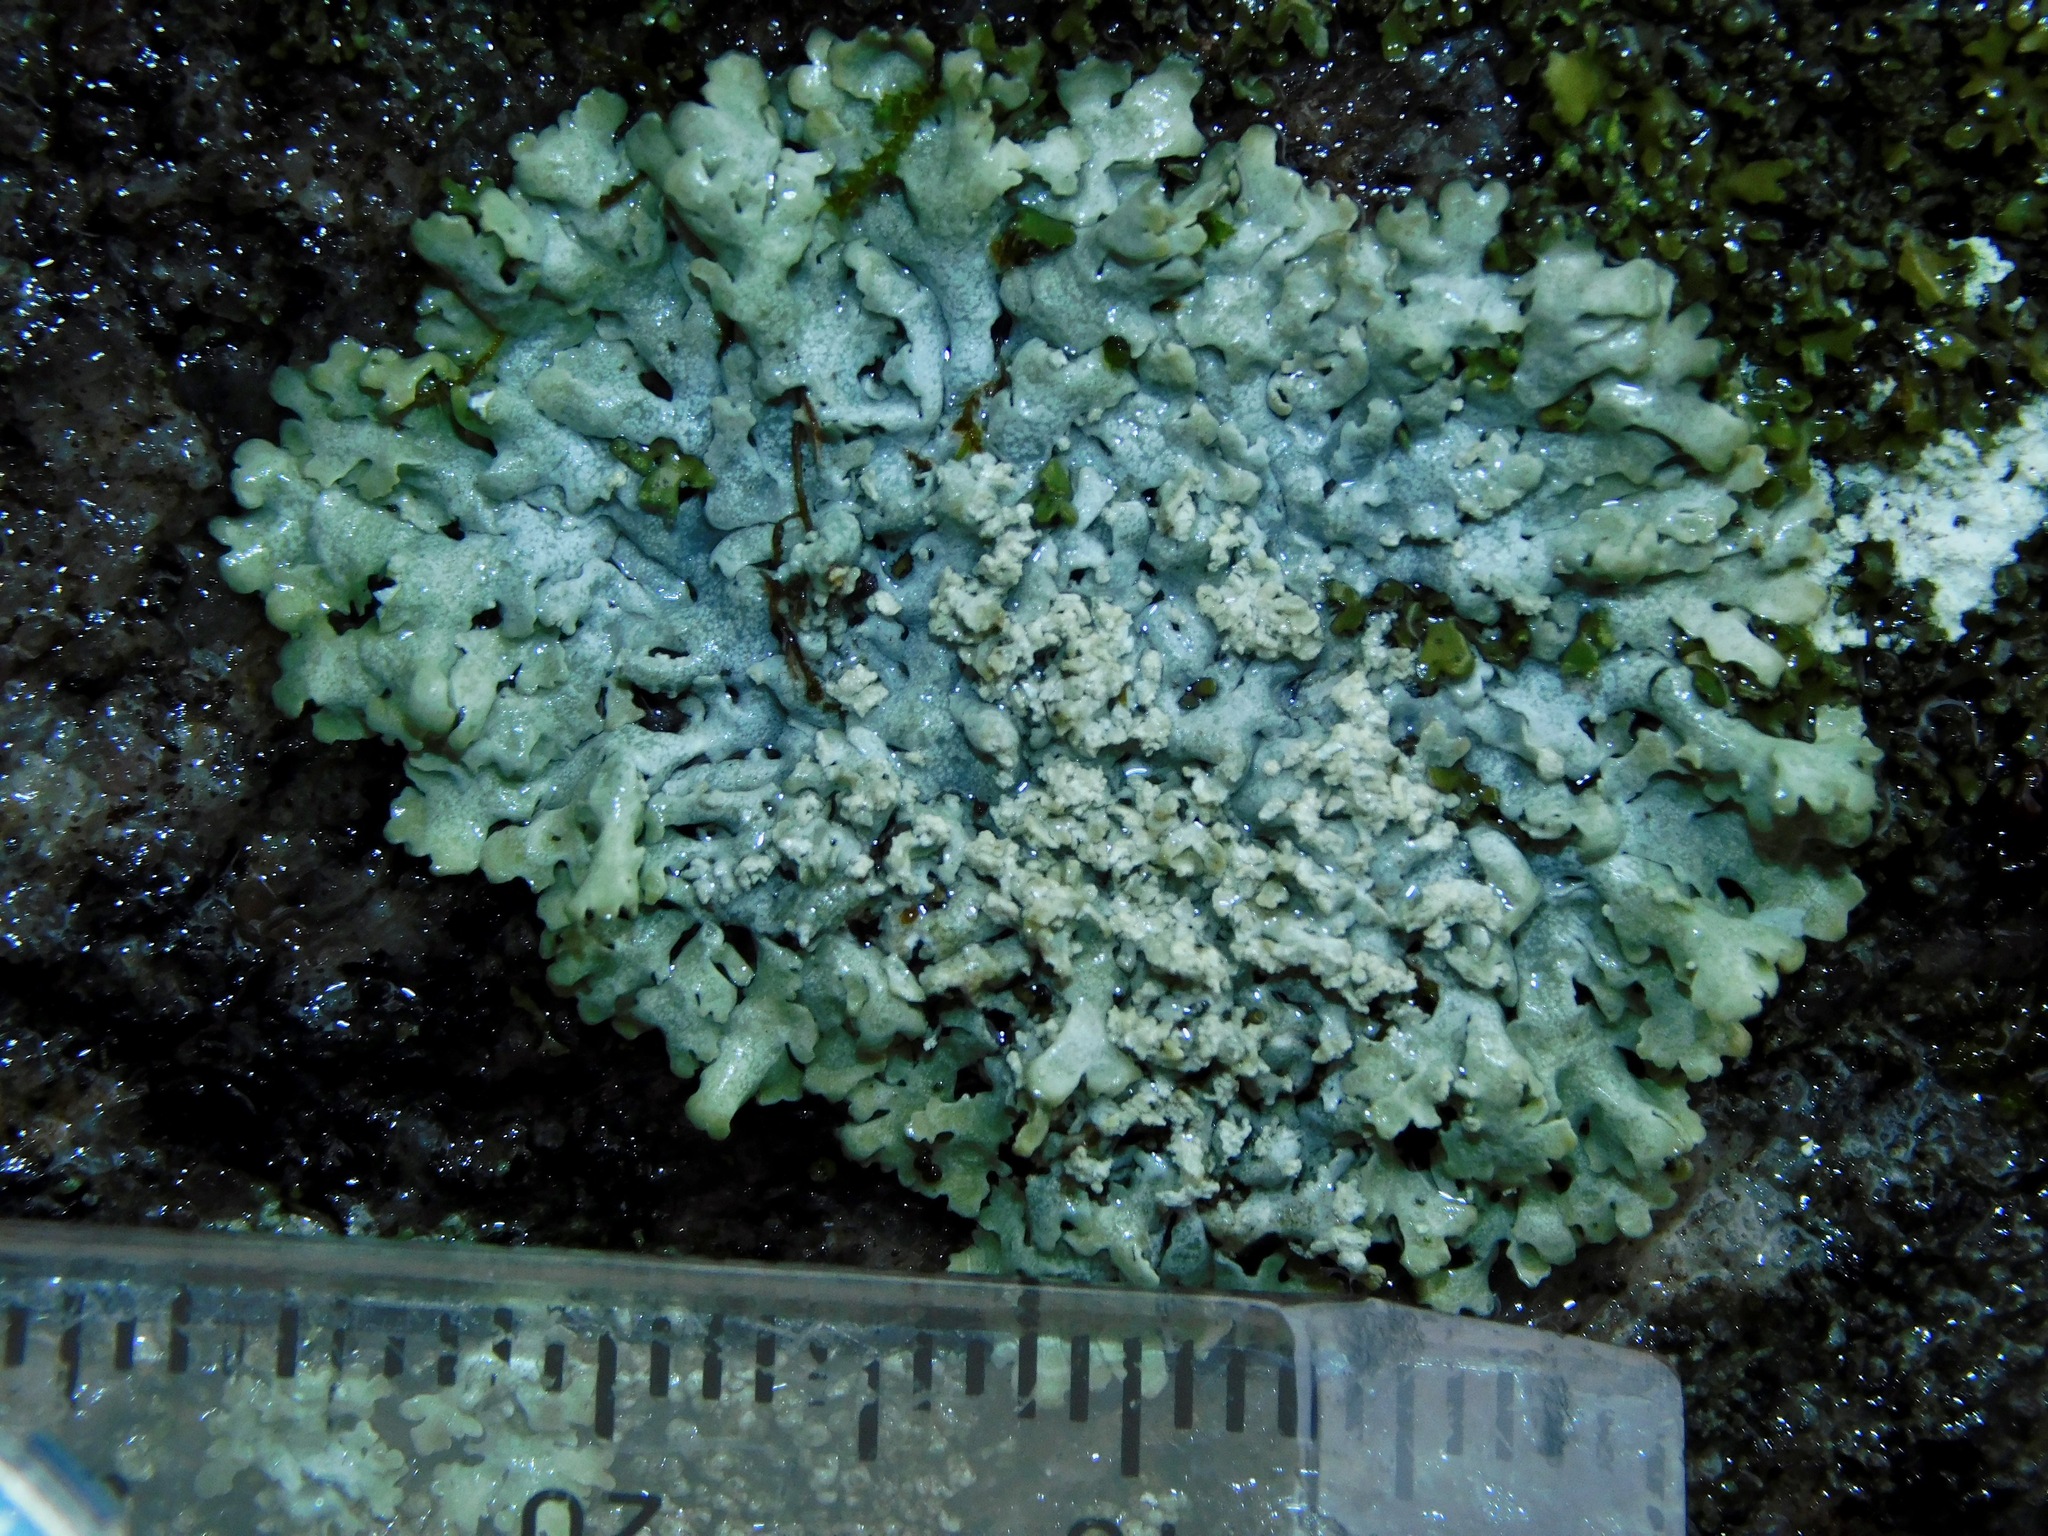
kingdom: Fungi
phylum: Ascomycota
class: Lecanoromycetes
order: Caliciales
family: Physciaceae
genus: Physcia
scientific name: Physcia caesia
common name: Blue-gray rosette lichen
